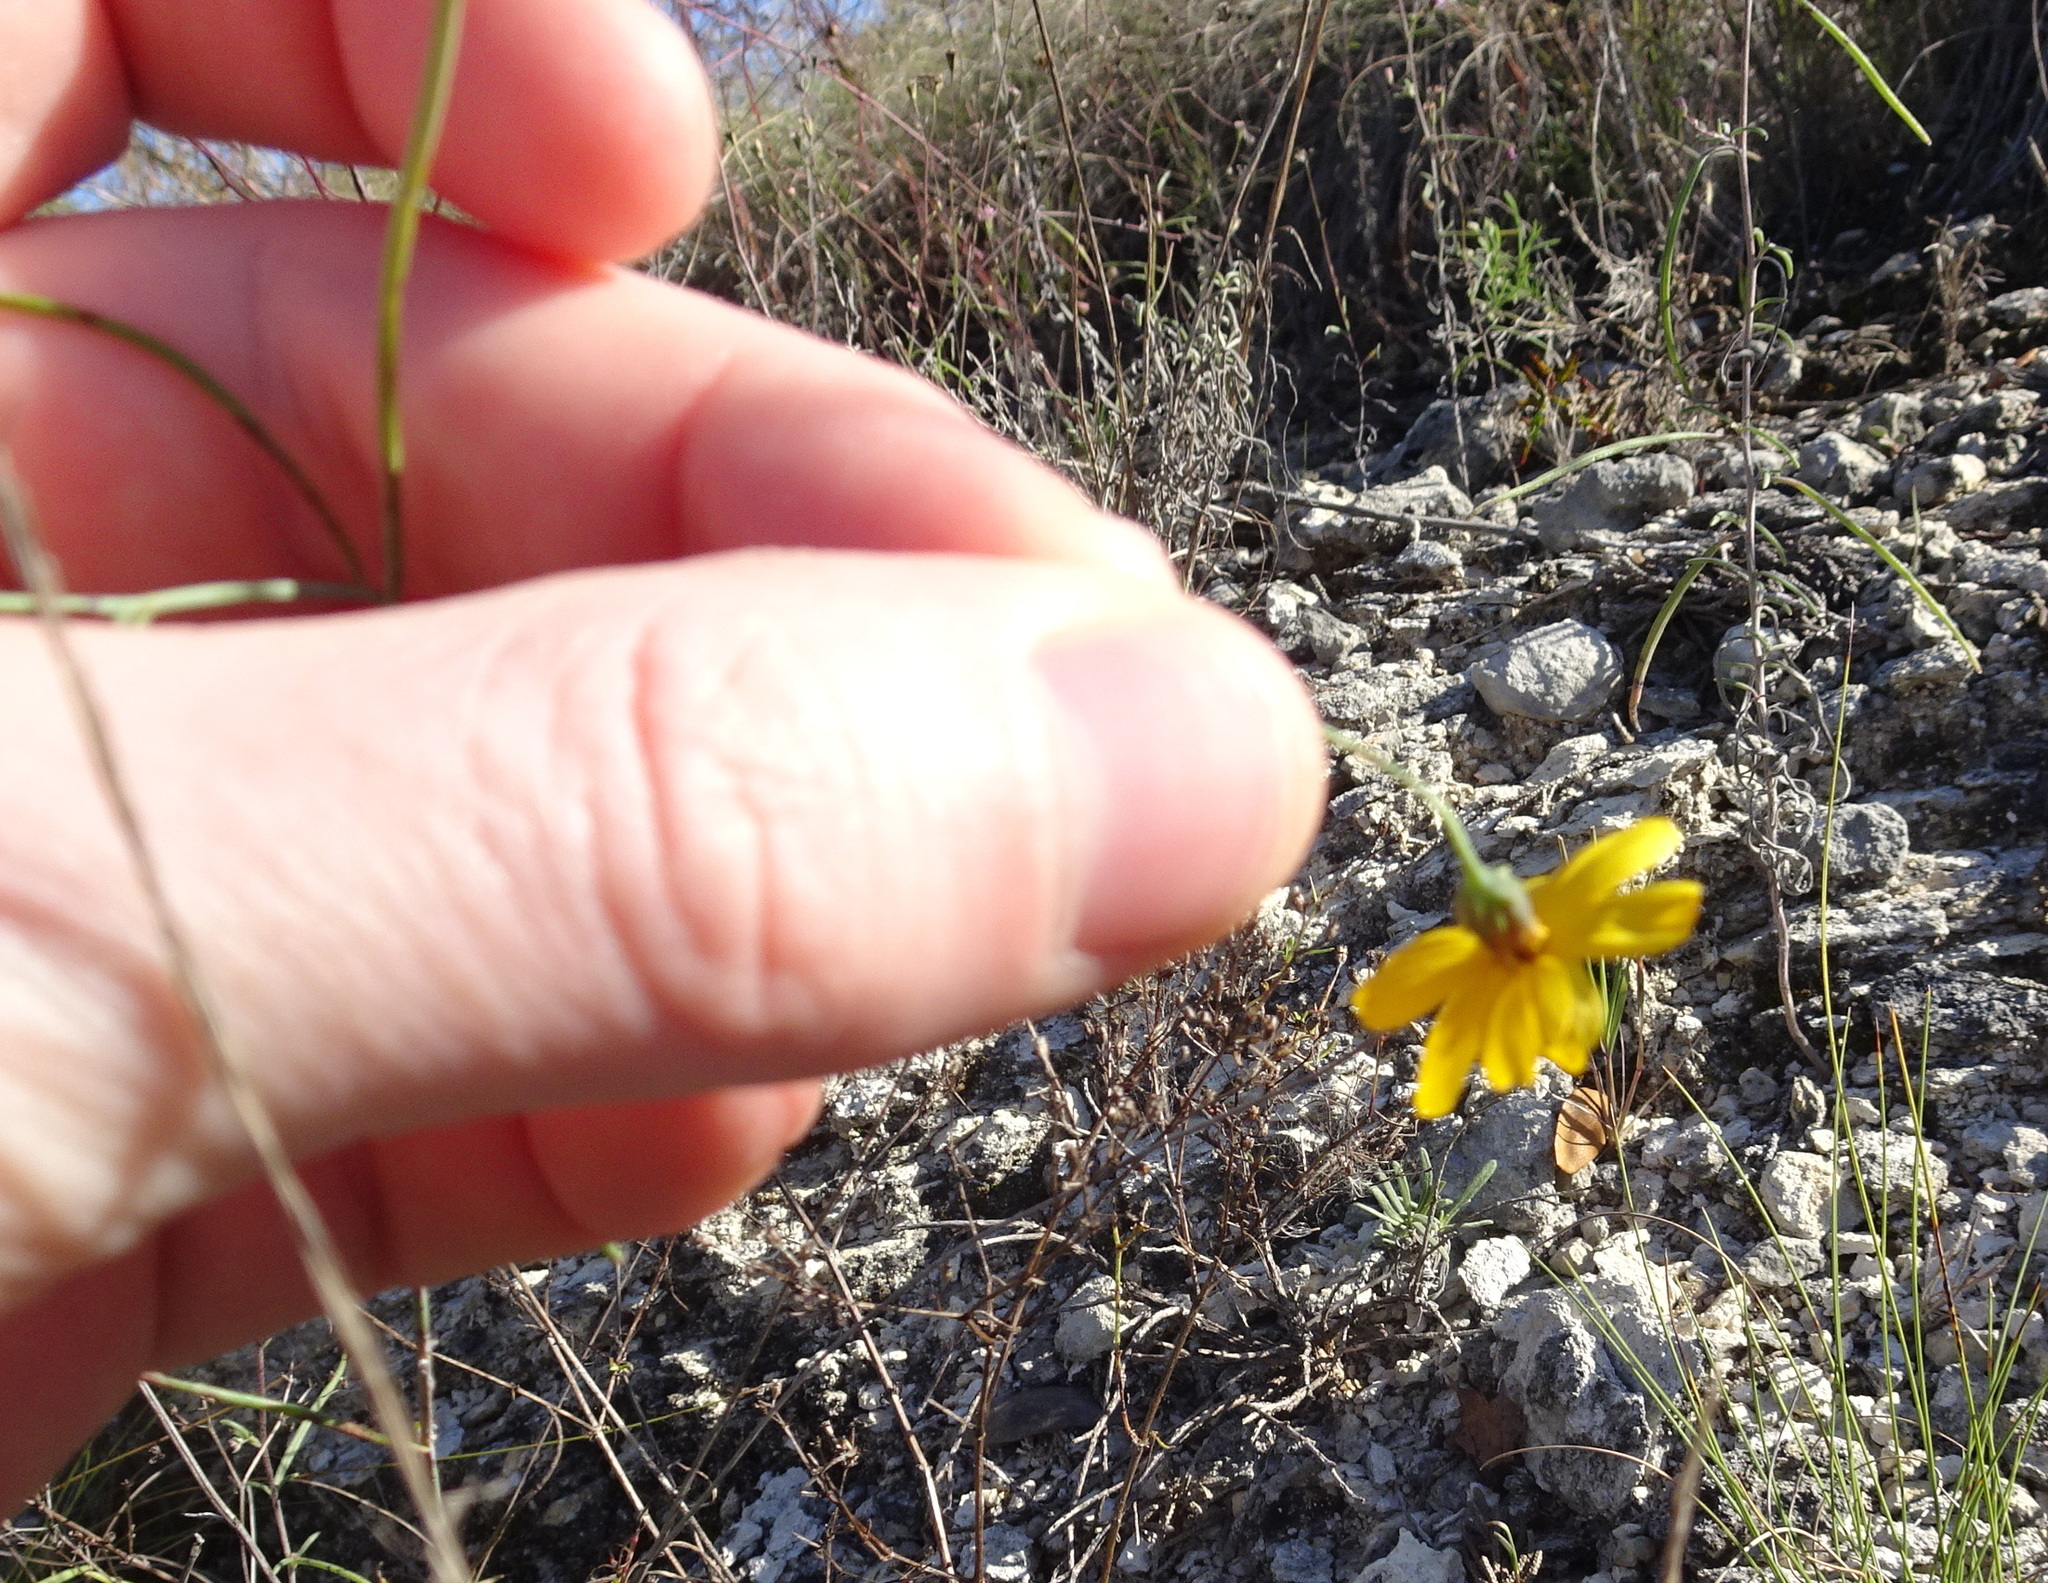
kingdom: Plantae
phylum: Tracheophyta
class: Magnoliopsida
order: Asterales
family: Asteraceae
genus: Thelesperma
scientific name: Thelesperma simplicifolium
